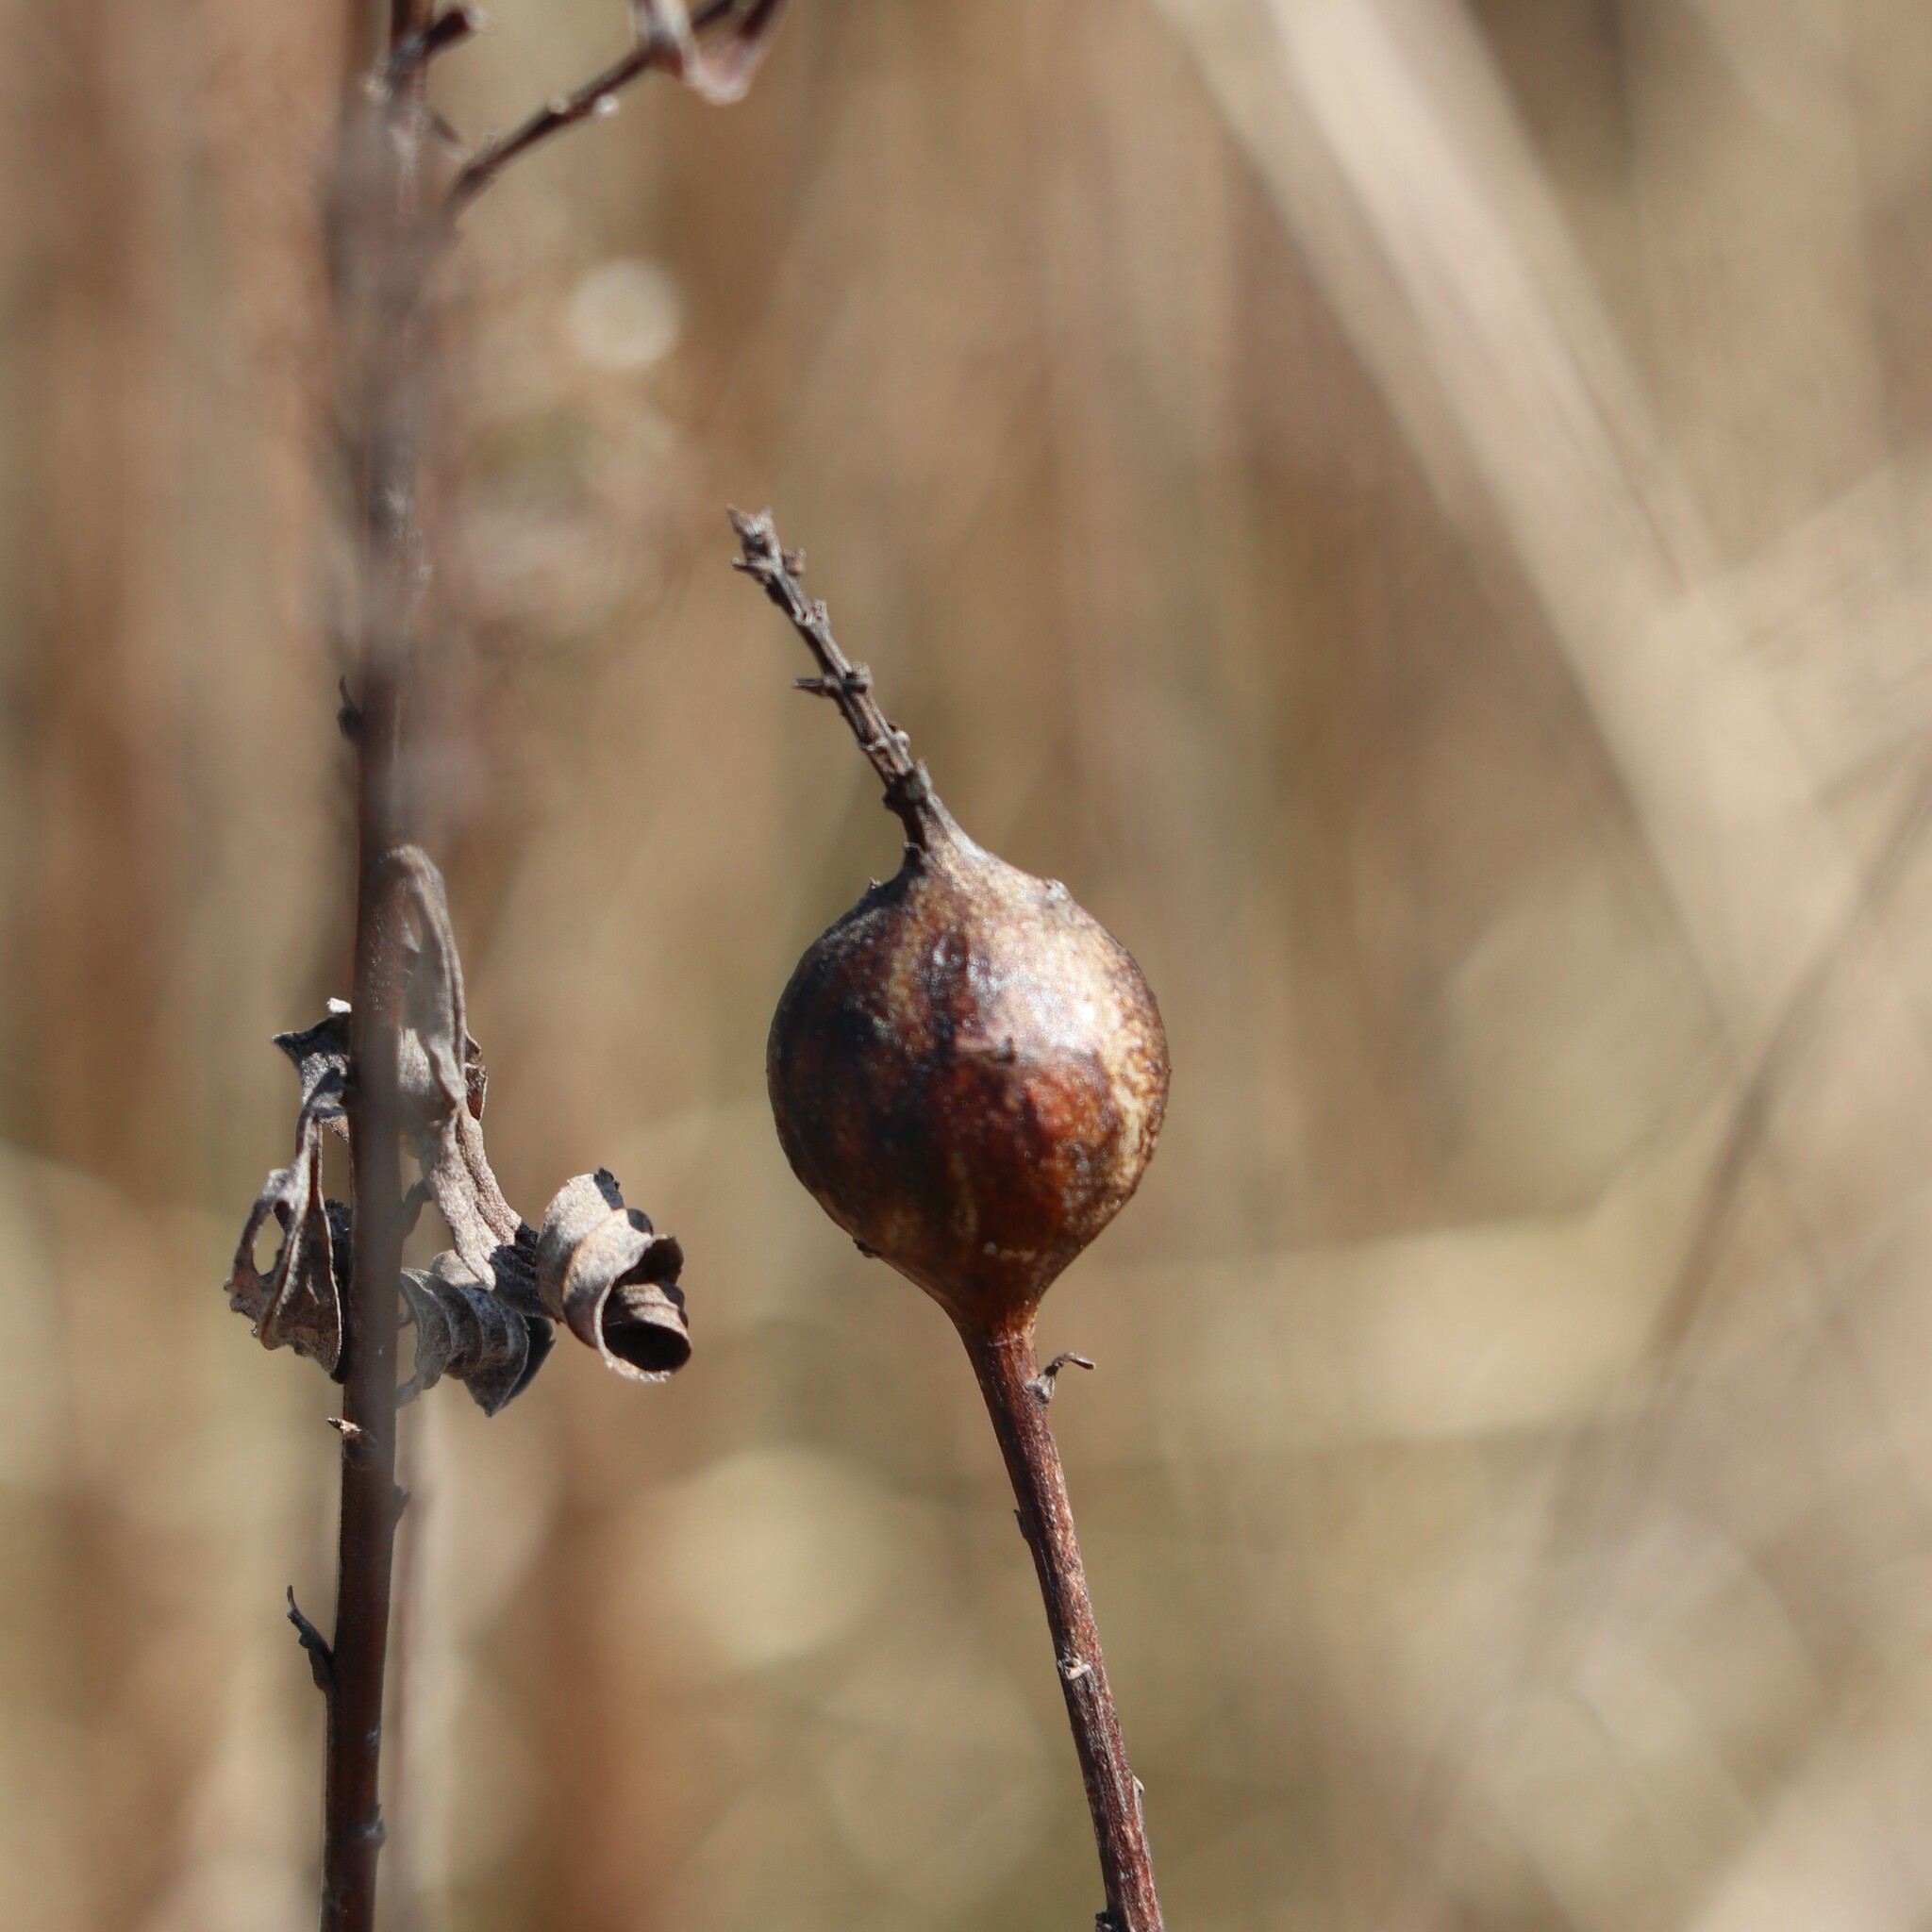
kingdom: Animalia
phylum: Arthropoda
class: Insecta
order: Diptera
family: Tephritidae
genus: Eurosta
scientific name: Eurosta solidaginis
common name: Goldenrod gall fly
